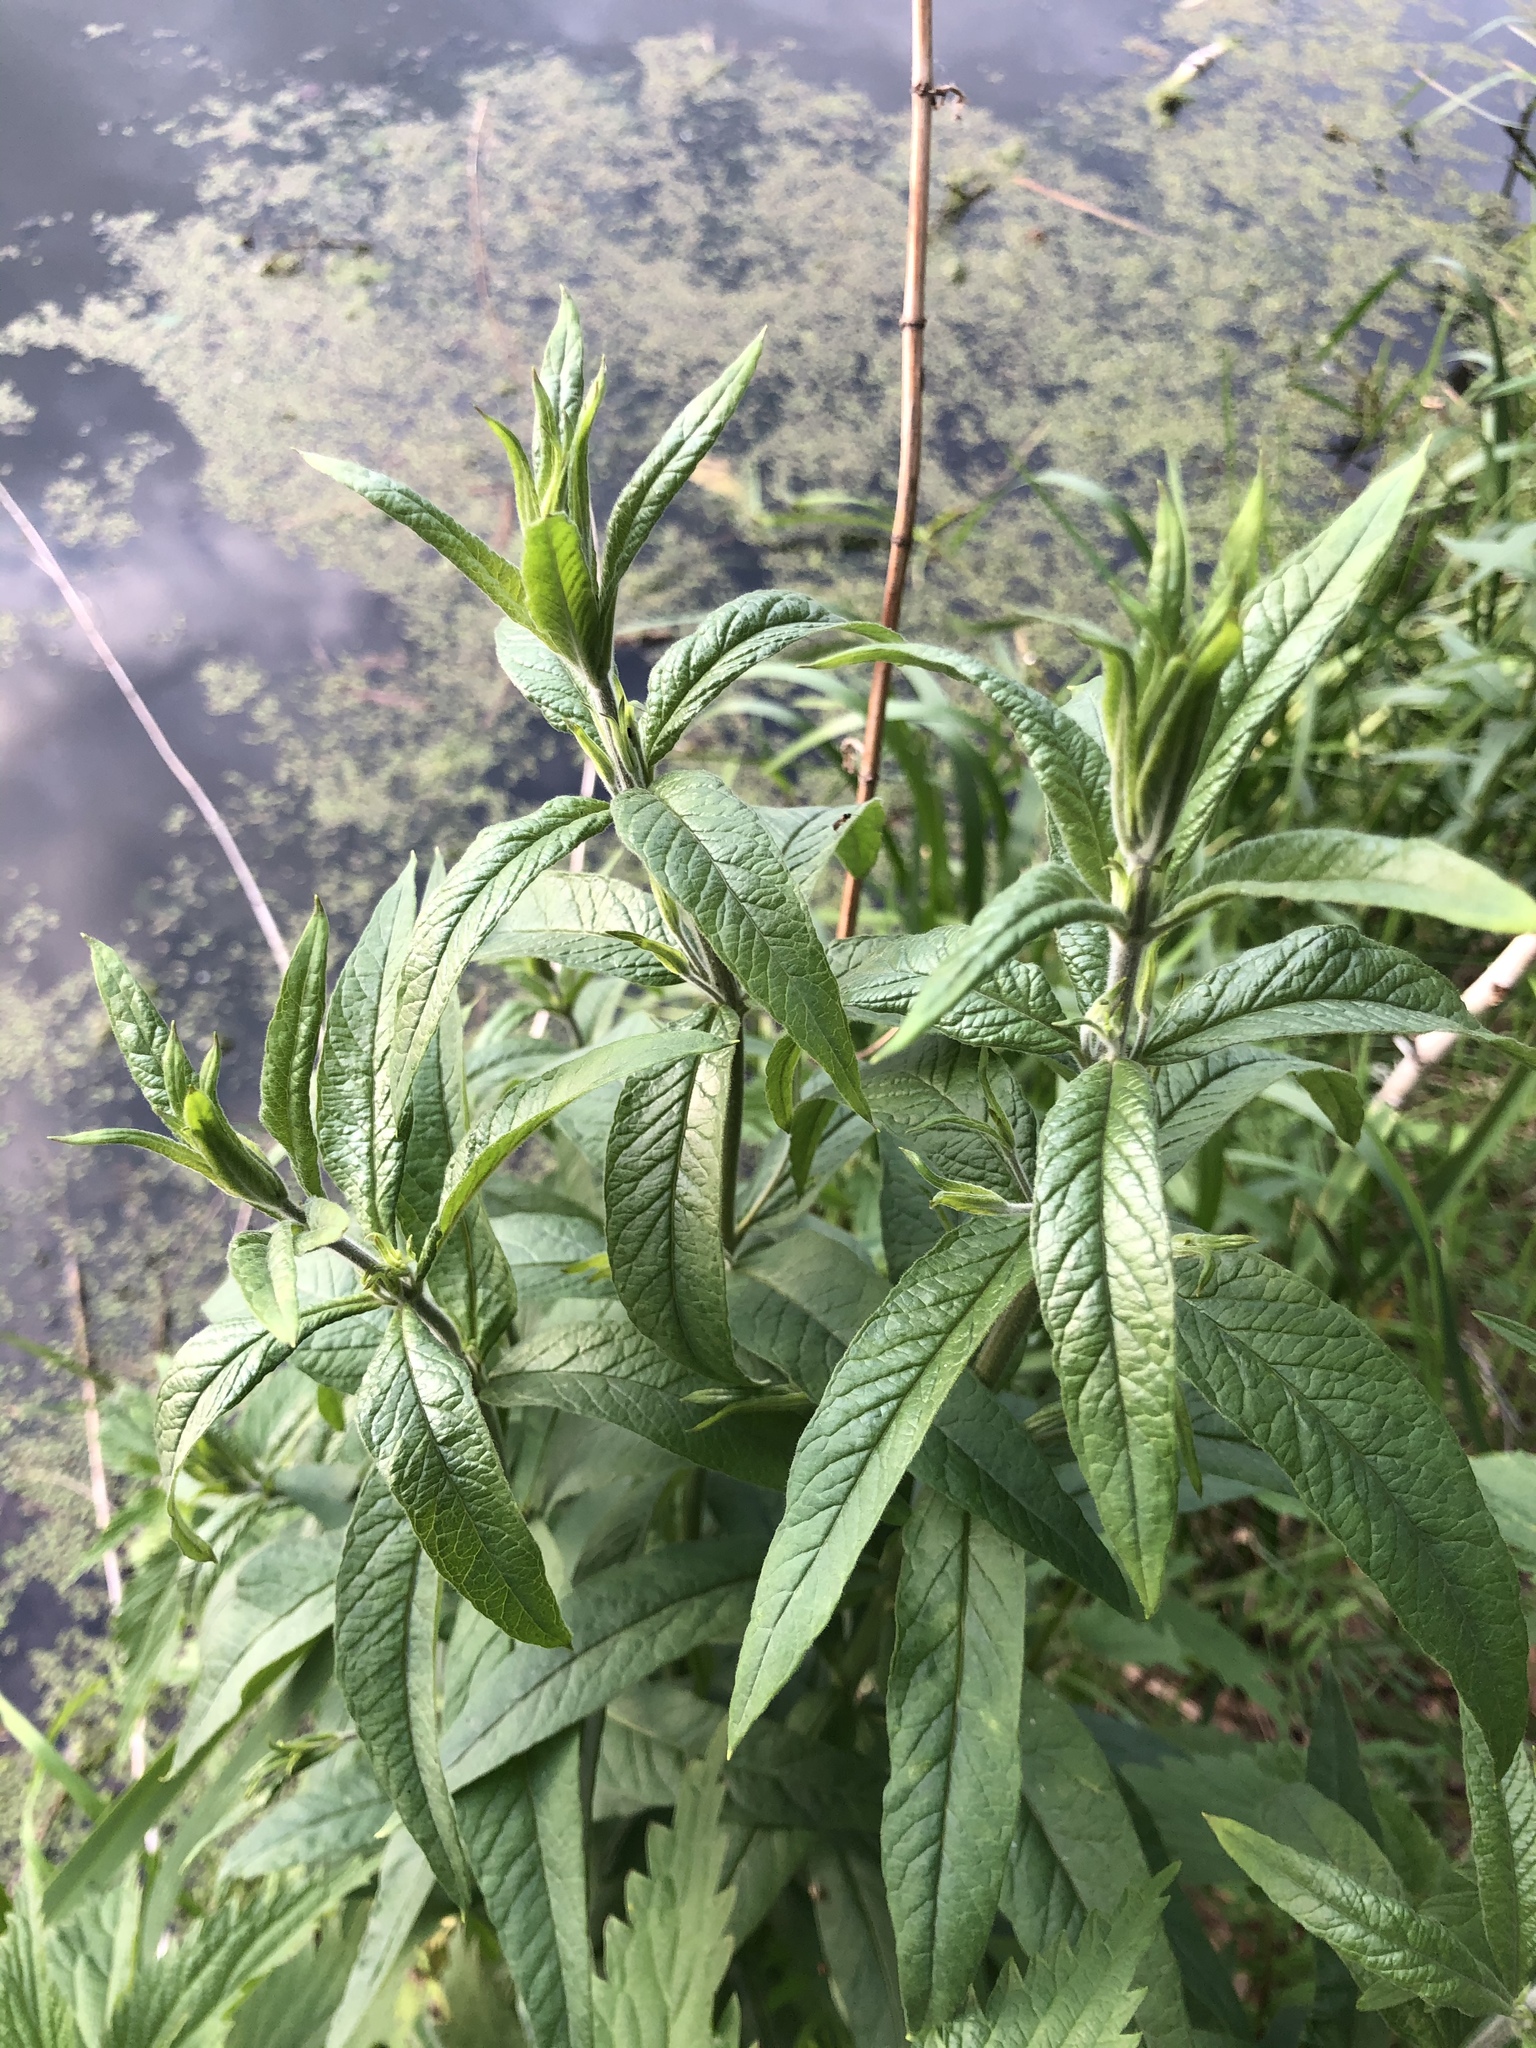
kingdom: Plantae
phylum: Tracheophyta
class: Magnoliopsida
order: Ericales
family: Primulaceae
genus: Lysimachia
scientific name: Lysimachia vulgaris
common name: Yellow loosestrife
